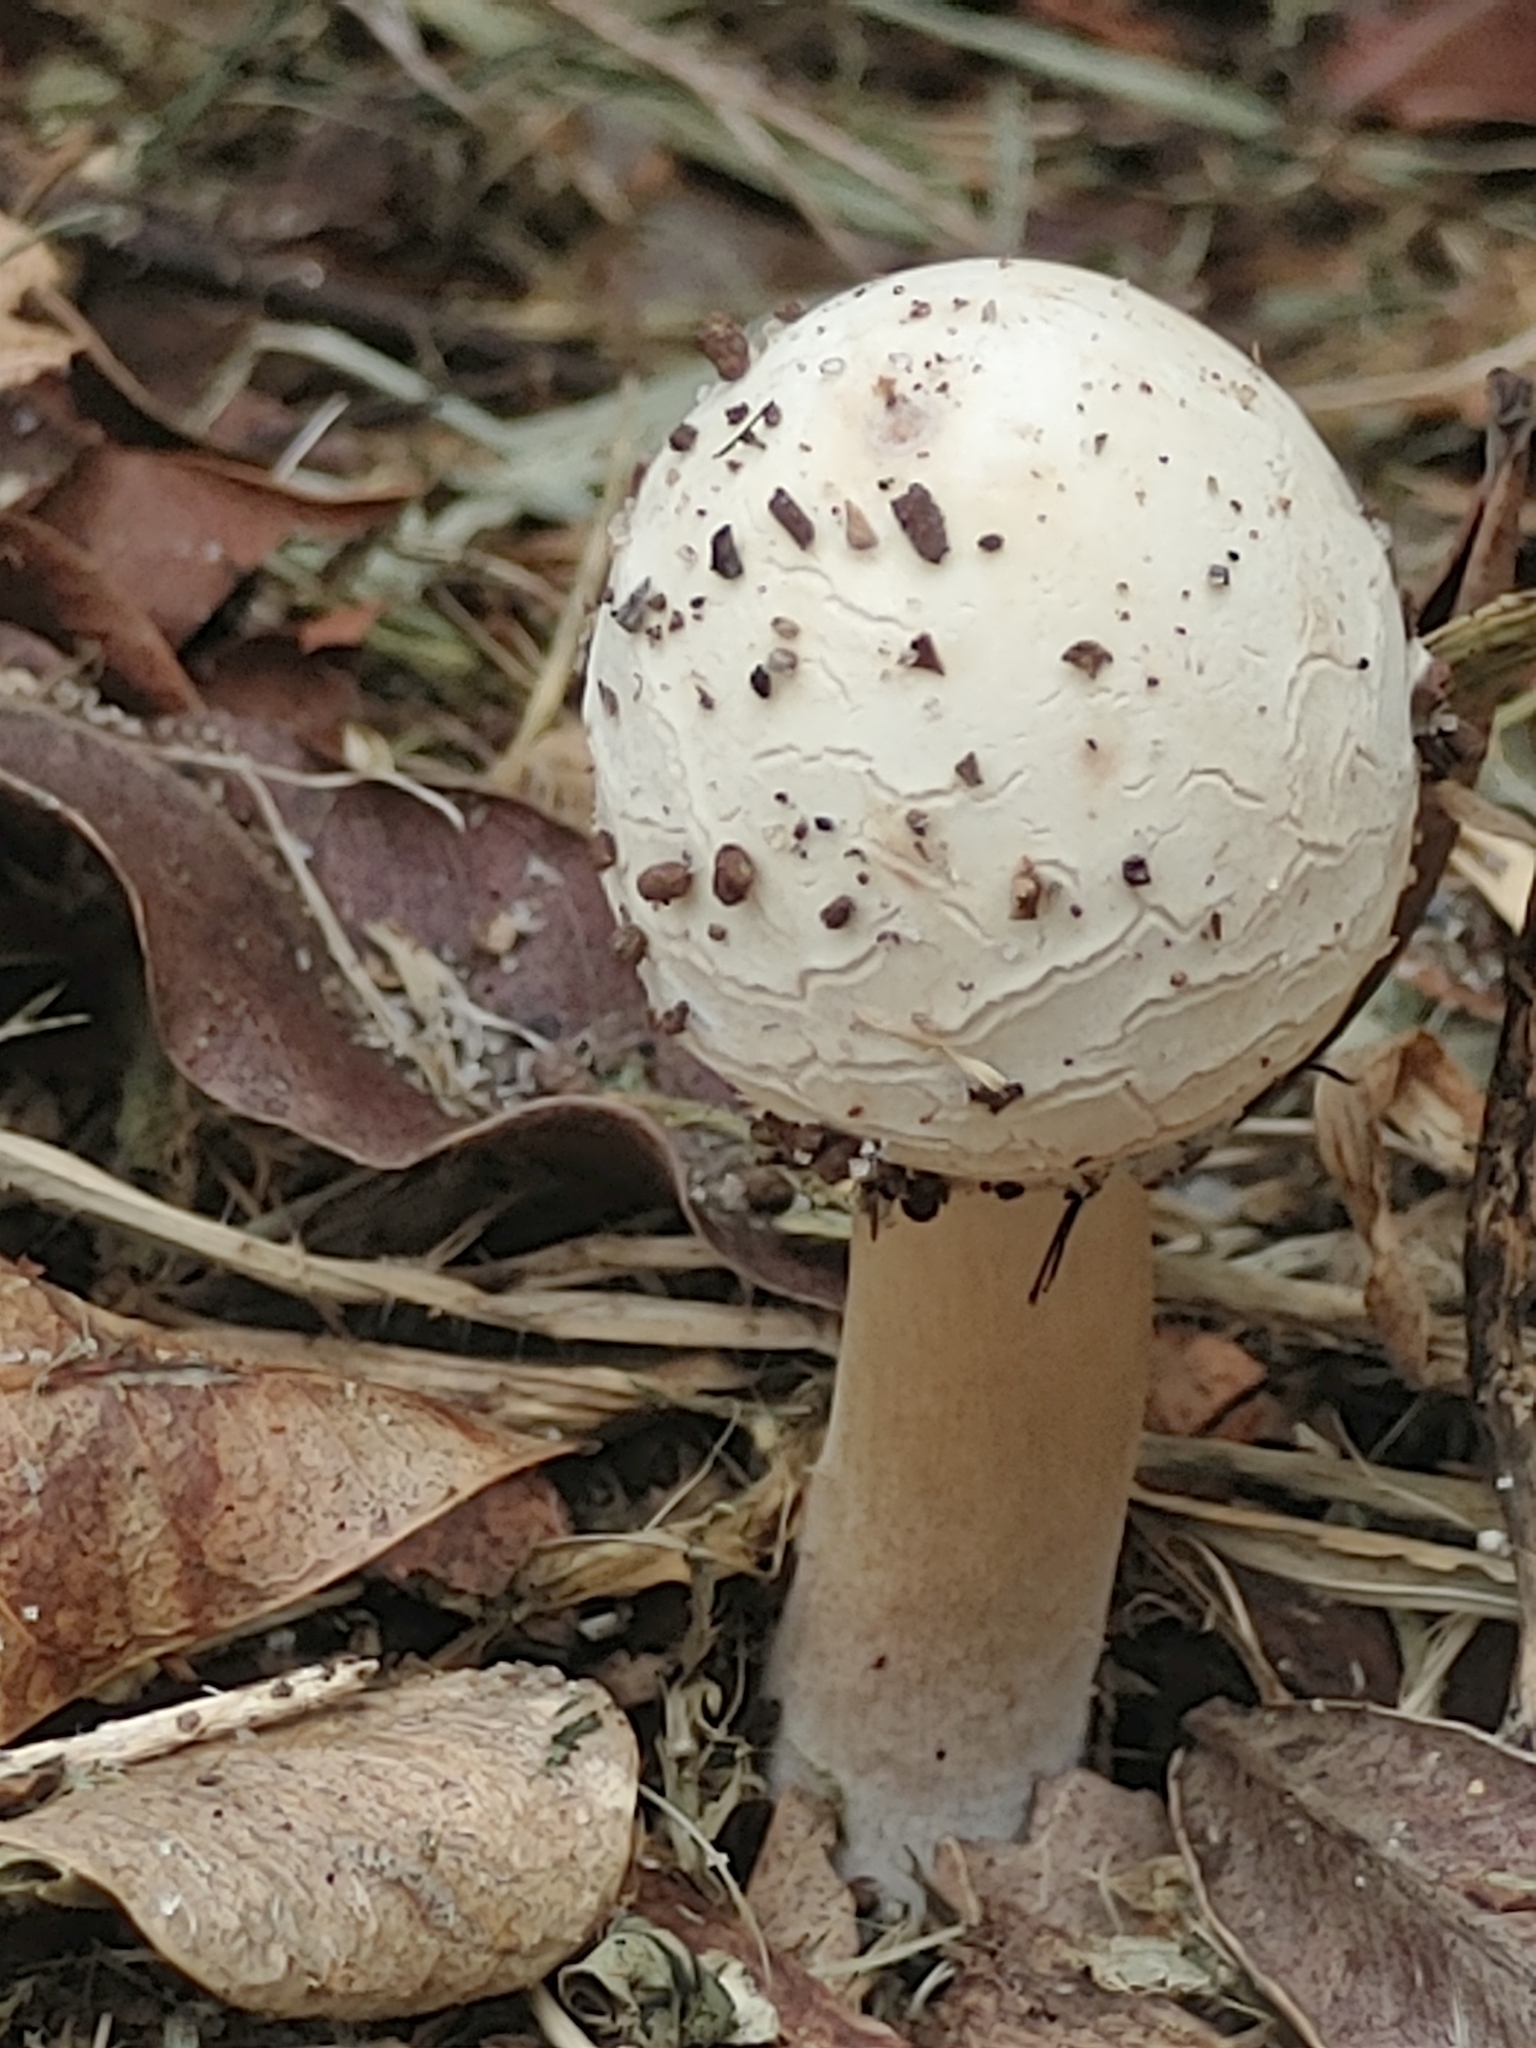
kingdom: Fungi
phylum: Basidiomycota
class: Agaricomycetes
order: Agaricales
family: Agaricaceae
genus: Chlorophyllum
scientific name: Chlorophyllum molybdites
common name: False parasol
